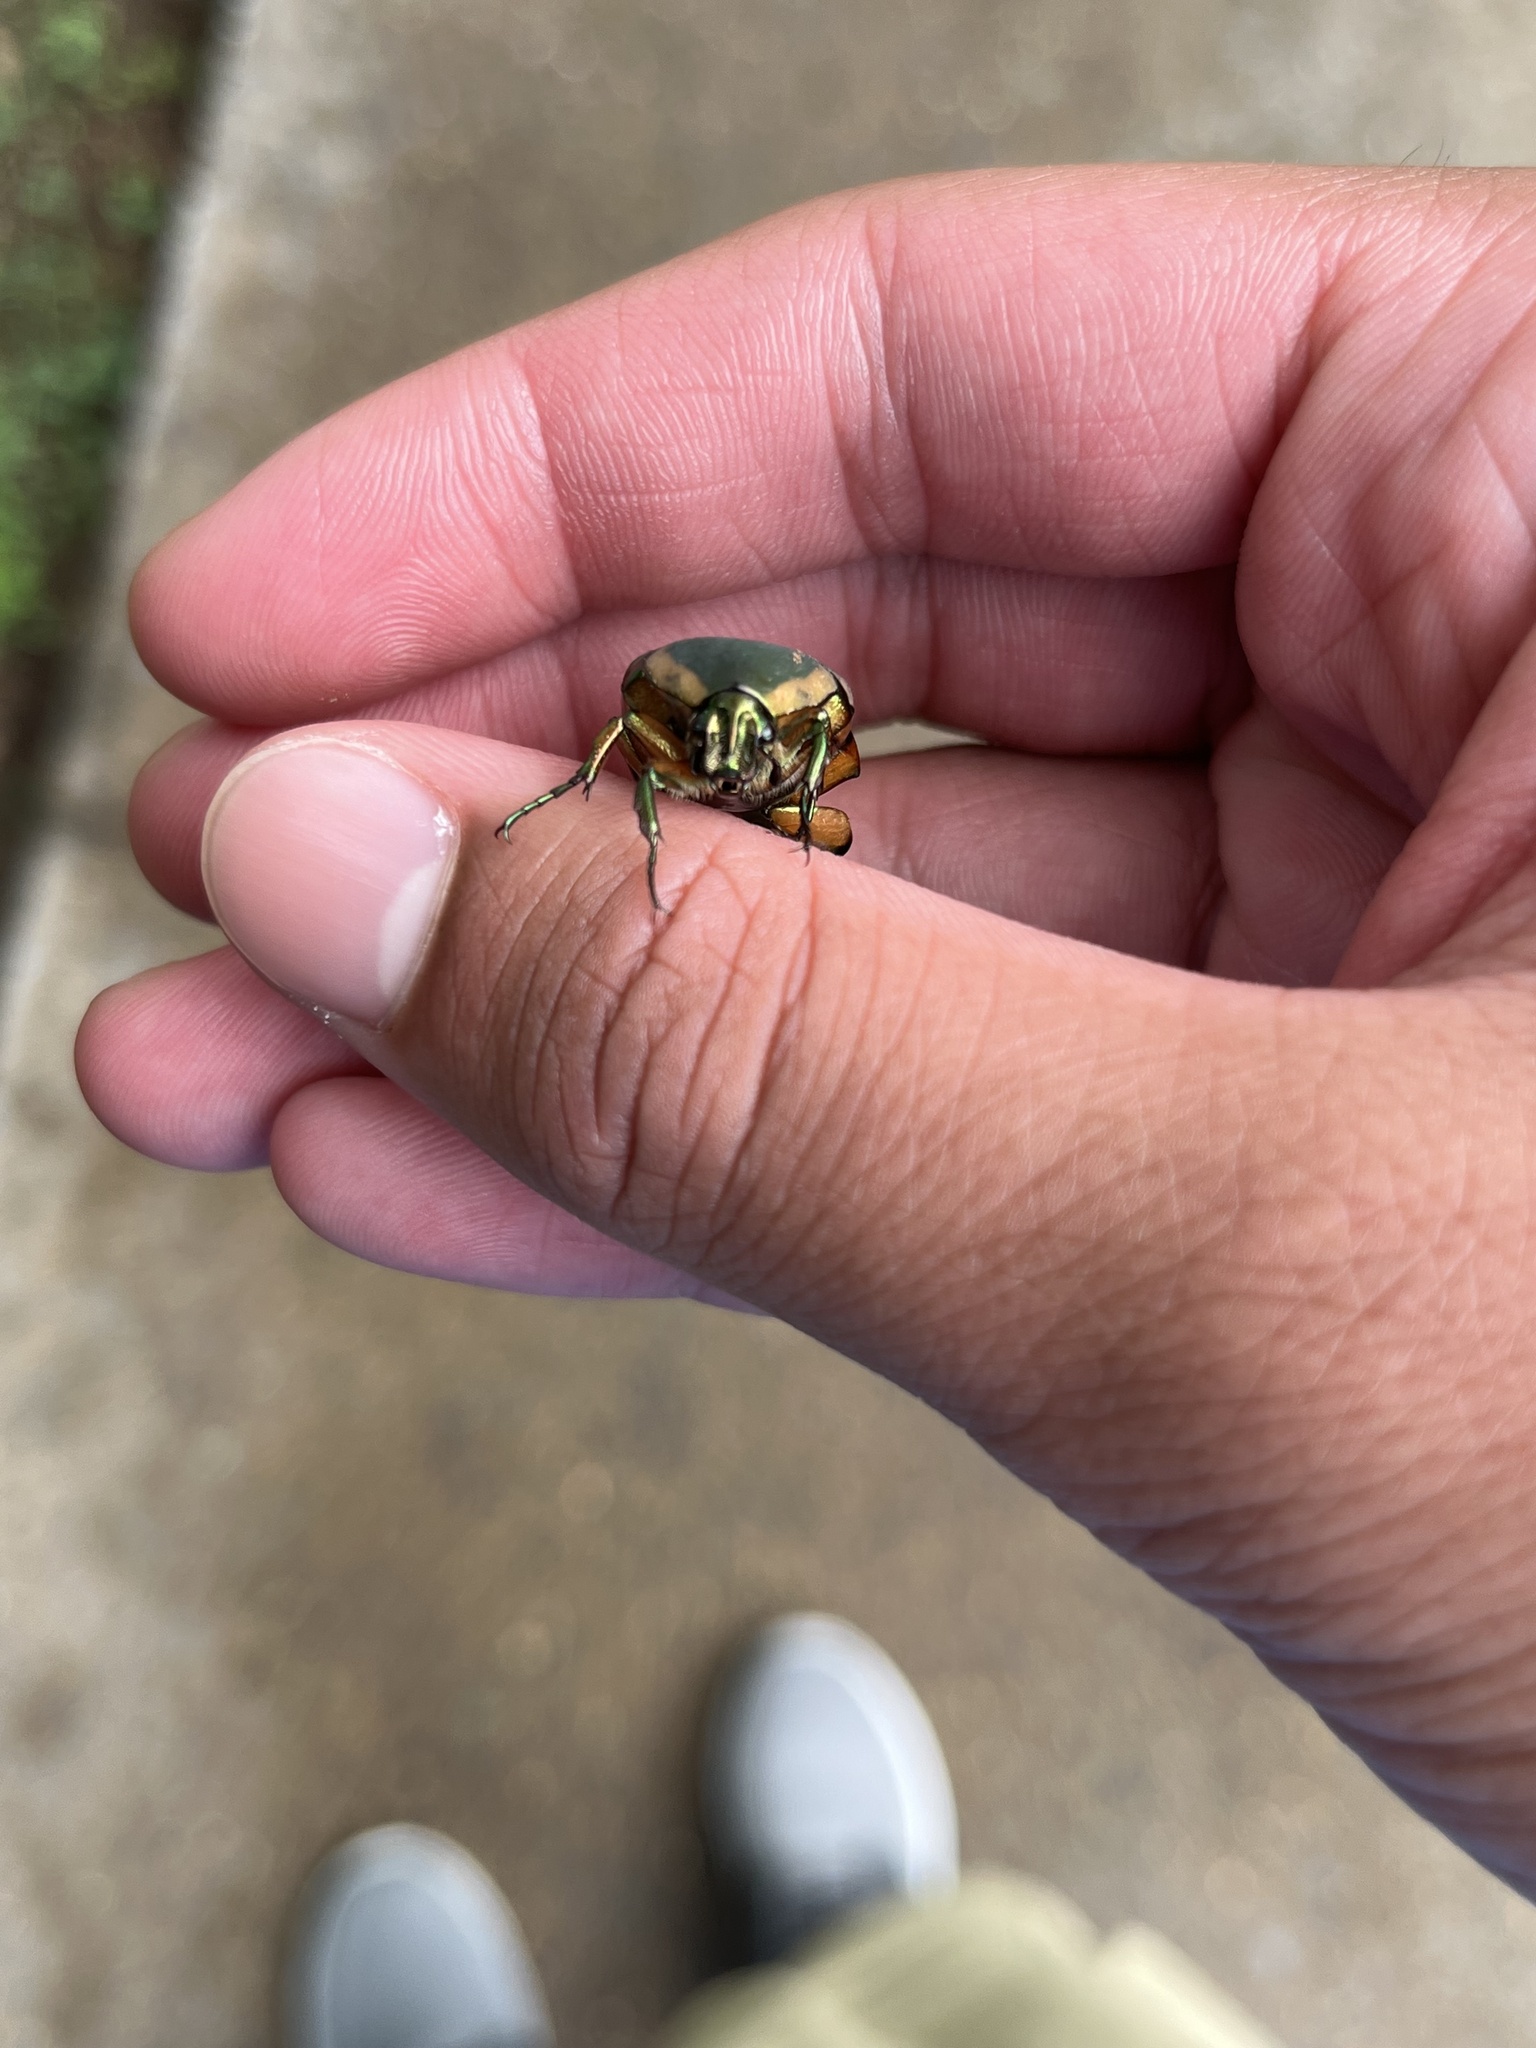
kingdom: Animalia
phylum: Arthropoda
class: Insecta
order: Coleoptera
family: Scarabaeidae
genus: Cotinis
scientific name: Cotinis nitida
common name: Common green june beetle
